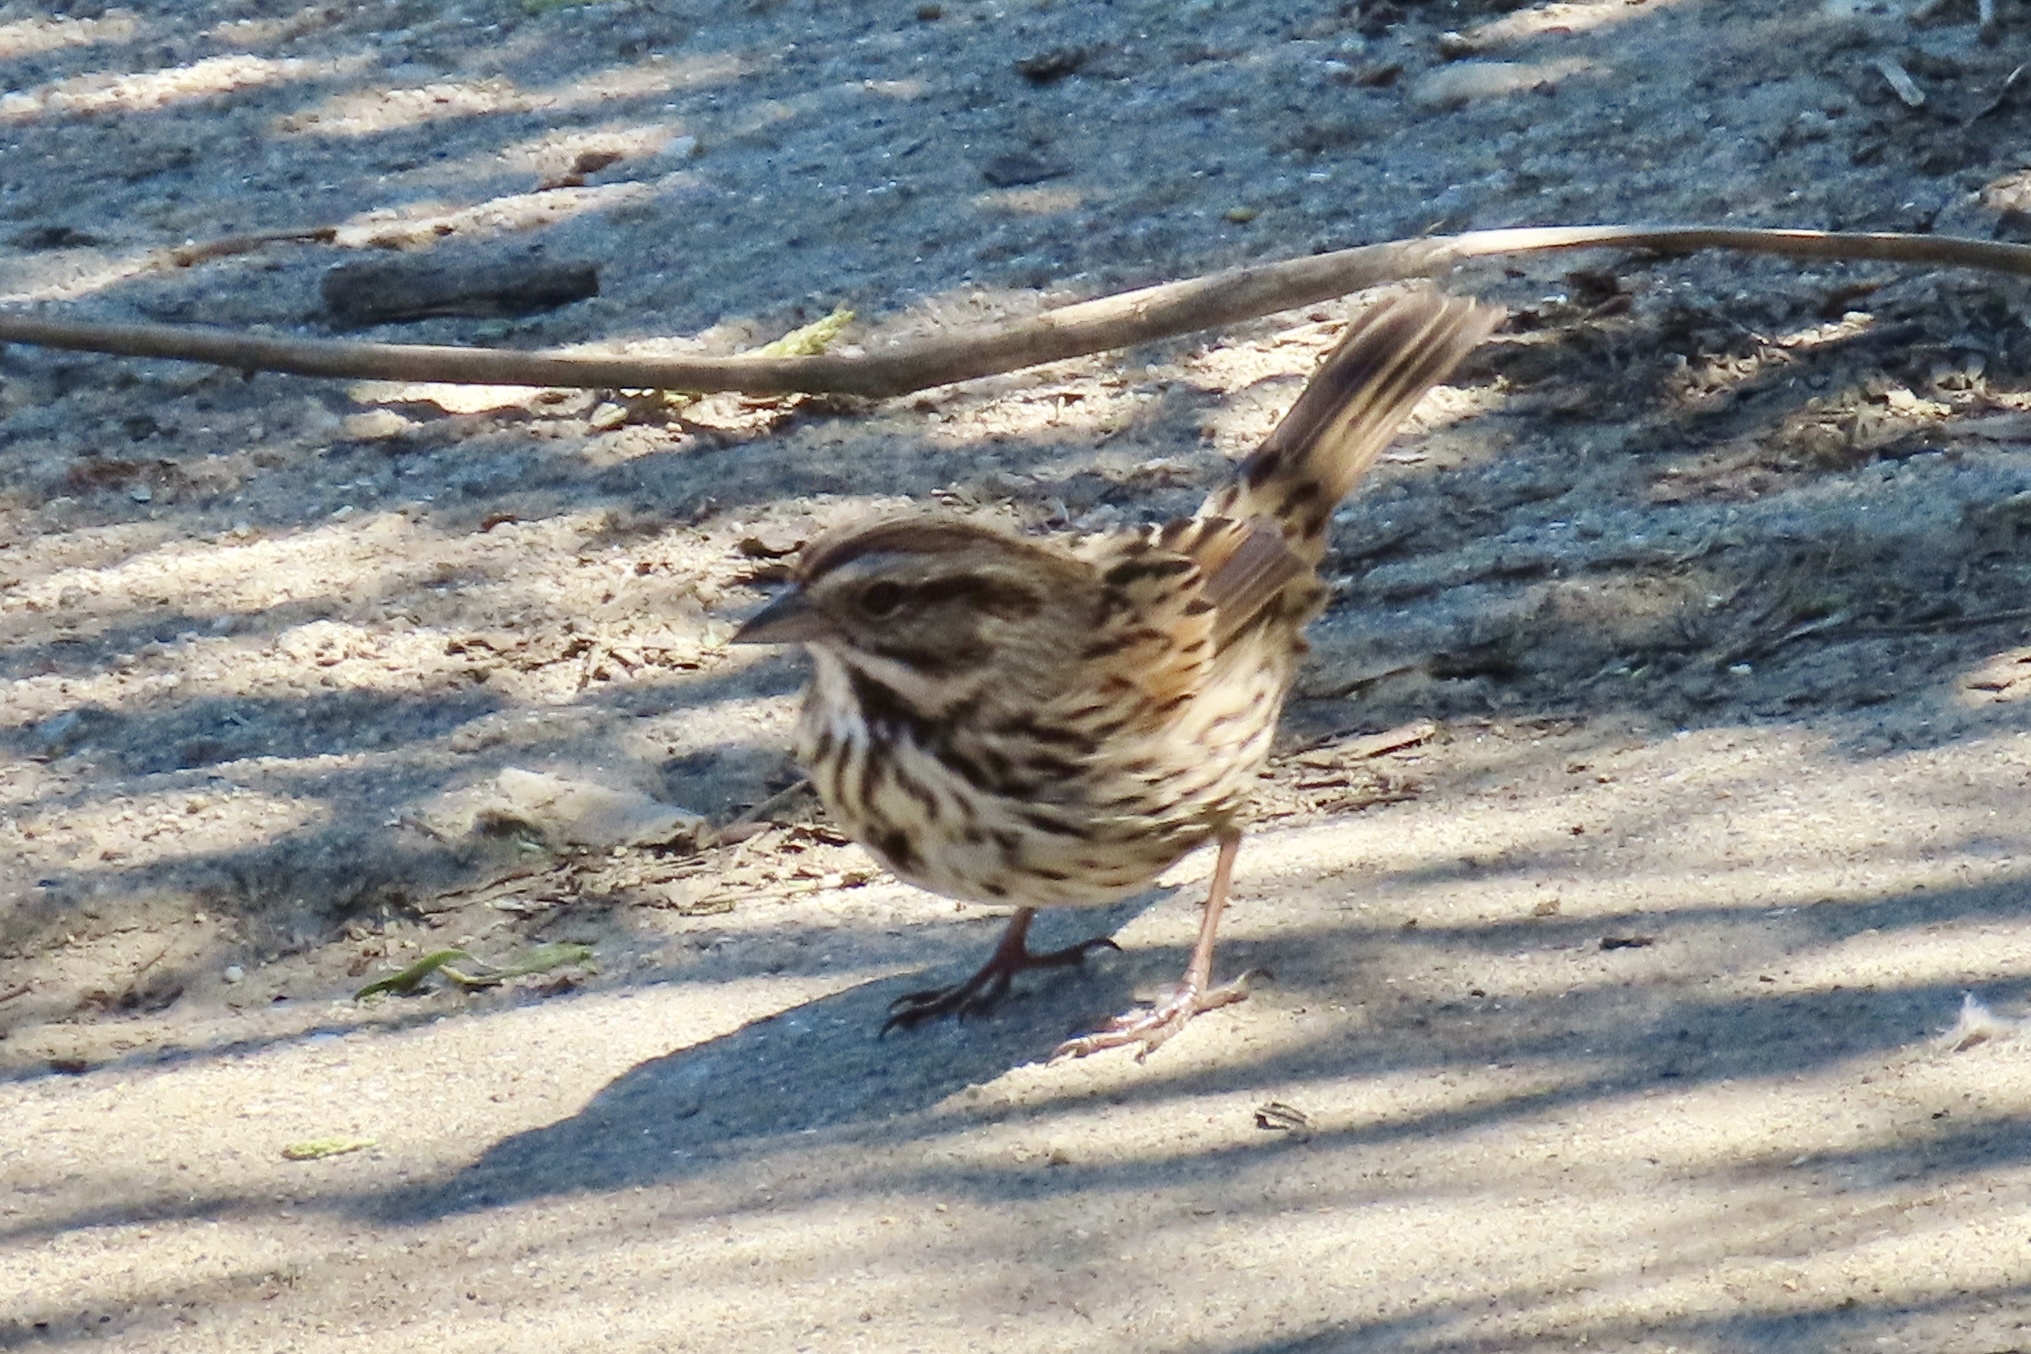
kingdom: Animalia
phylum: Chordata
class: Aves
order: Passeriformes
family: Passerellidae
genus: Melospiza
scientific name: Melospiza melodia
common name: Song sparrow
